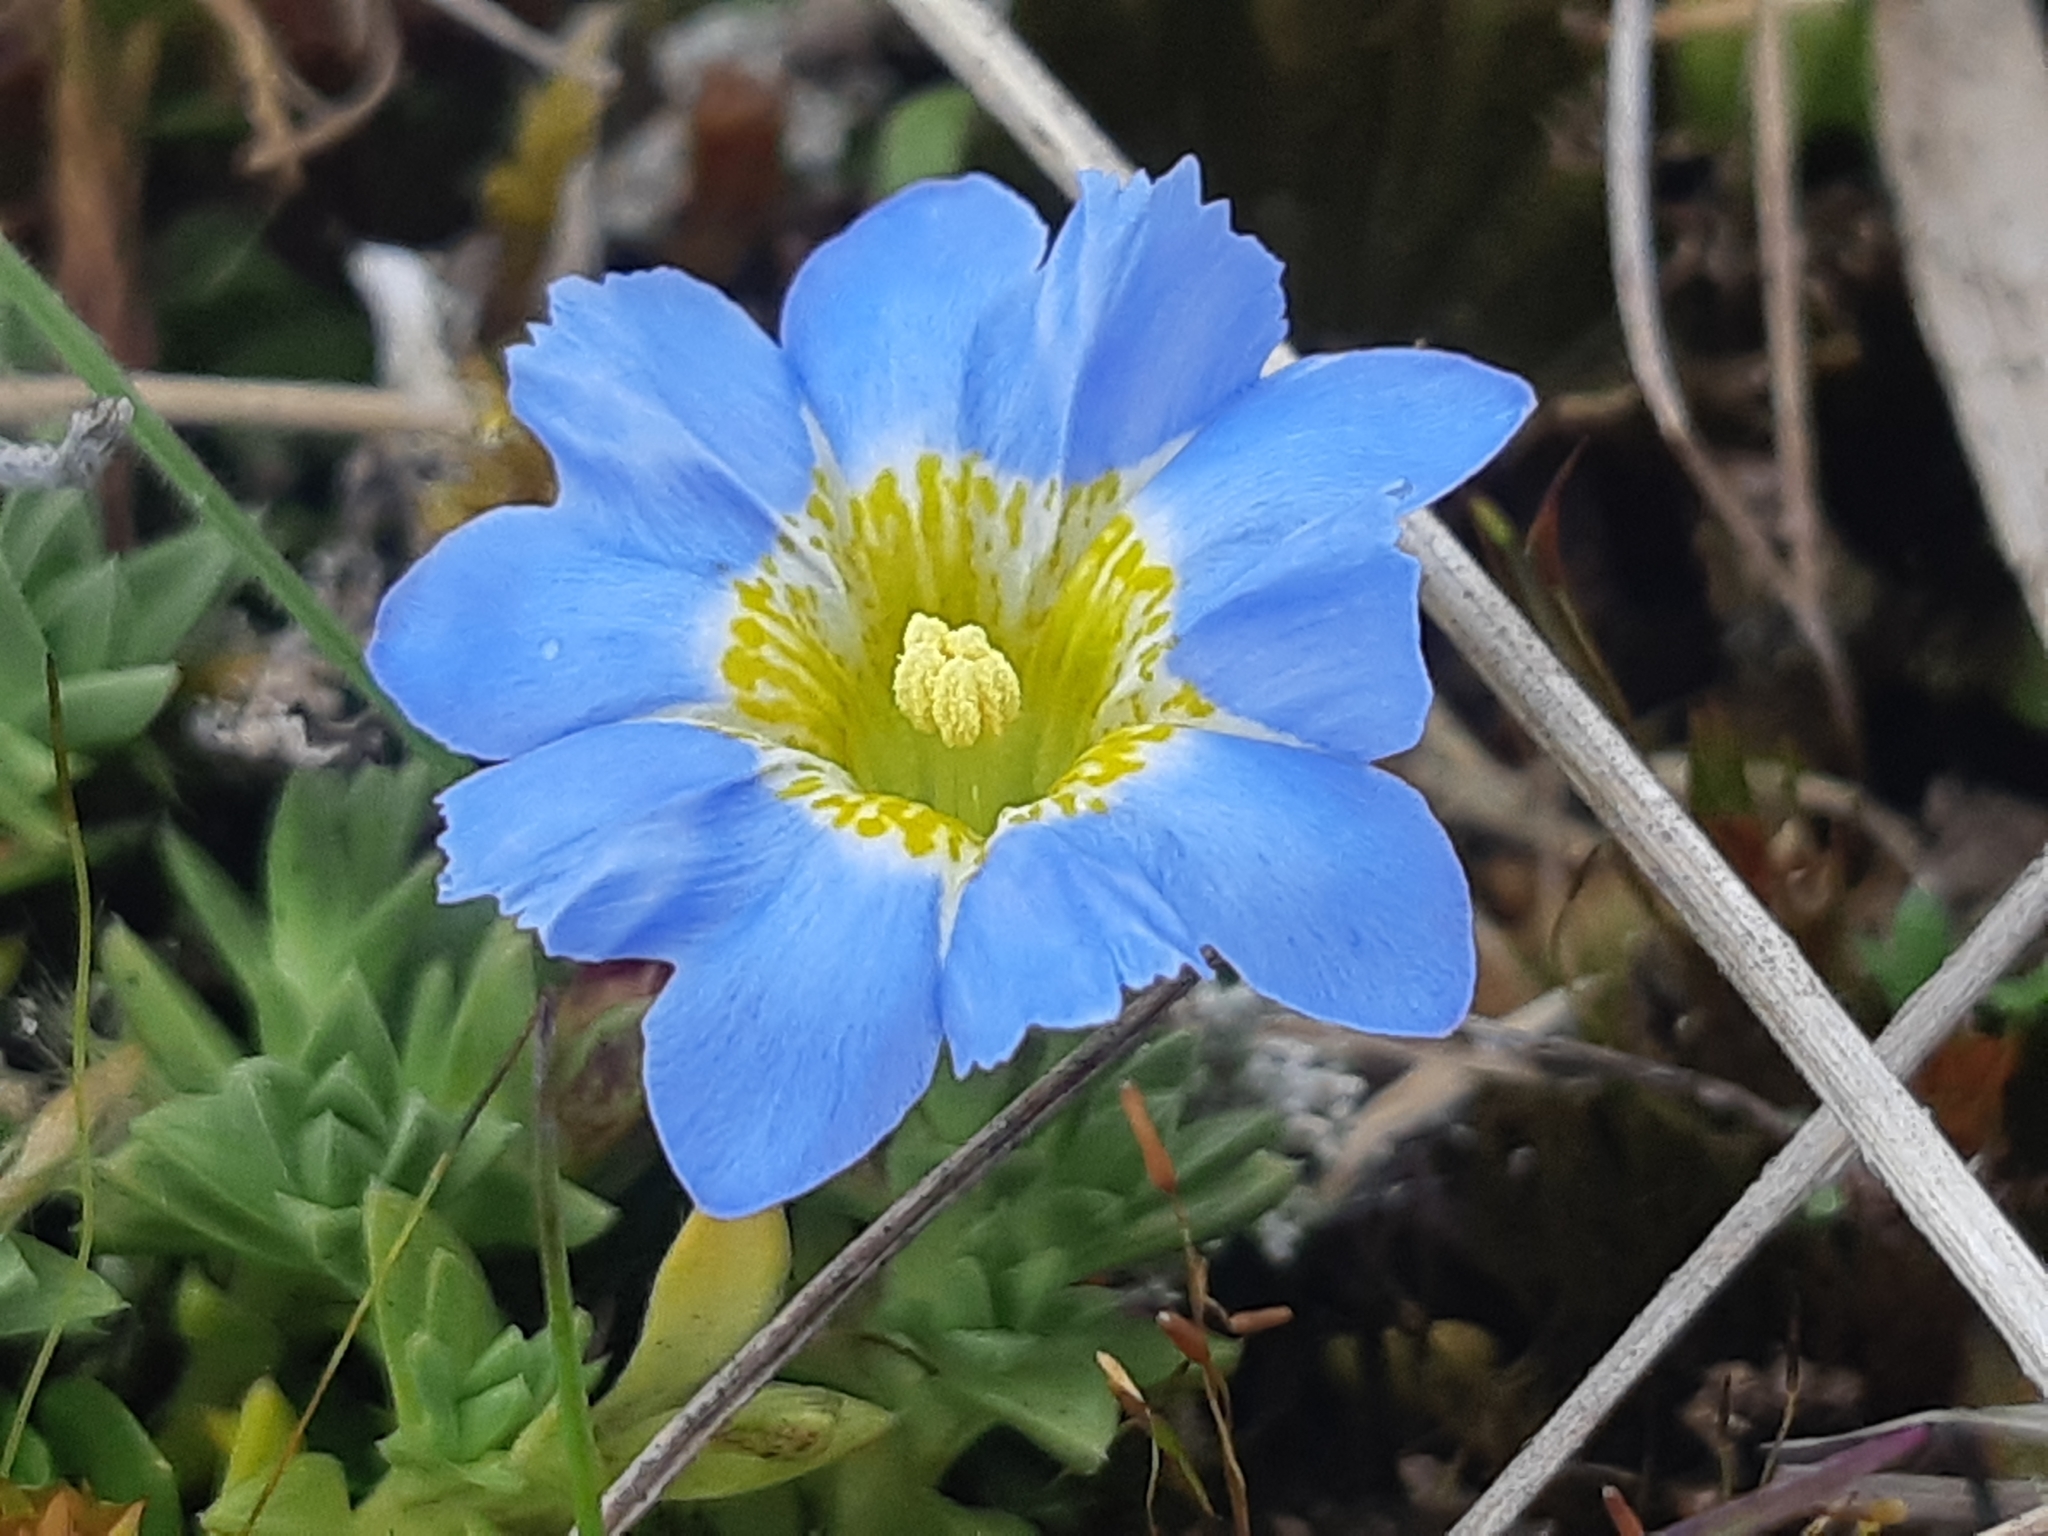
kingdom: Plantae
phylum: Tracheophyta
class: Magnoliopsida
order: Gentianales
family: Gentianaceae
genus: Gentiana
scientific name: Gentiana sedifolia
